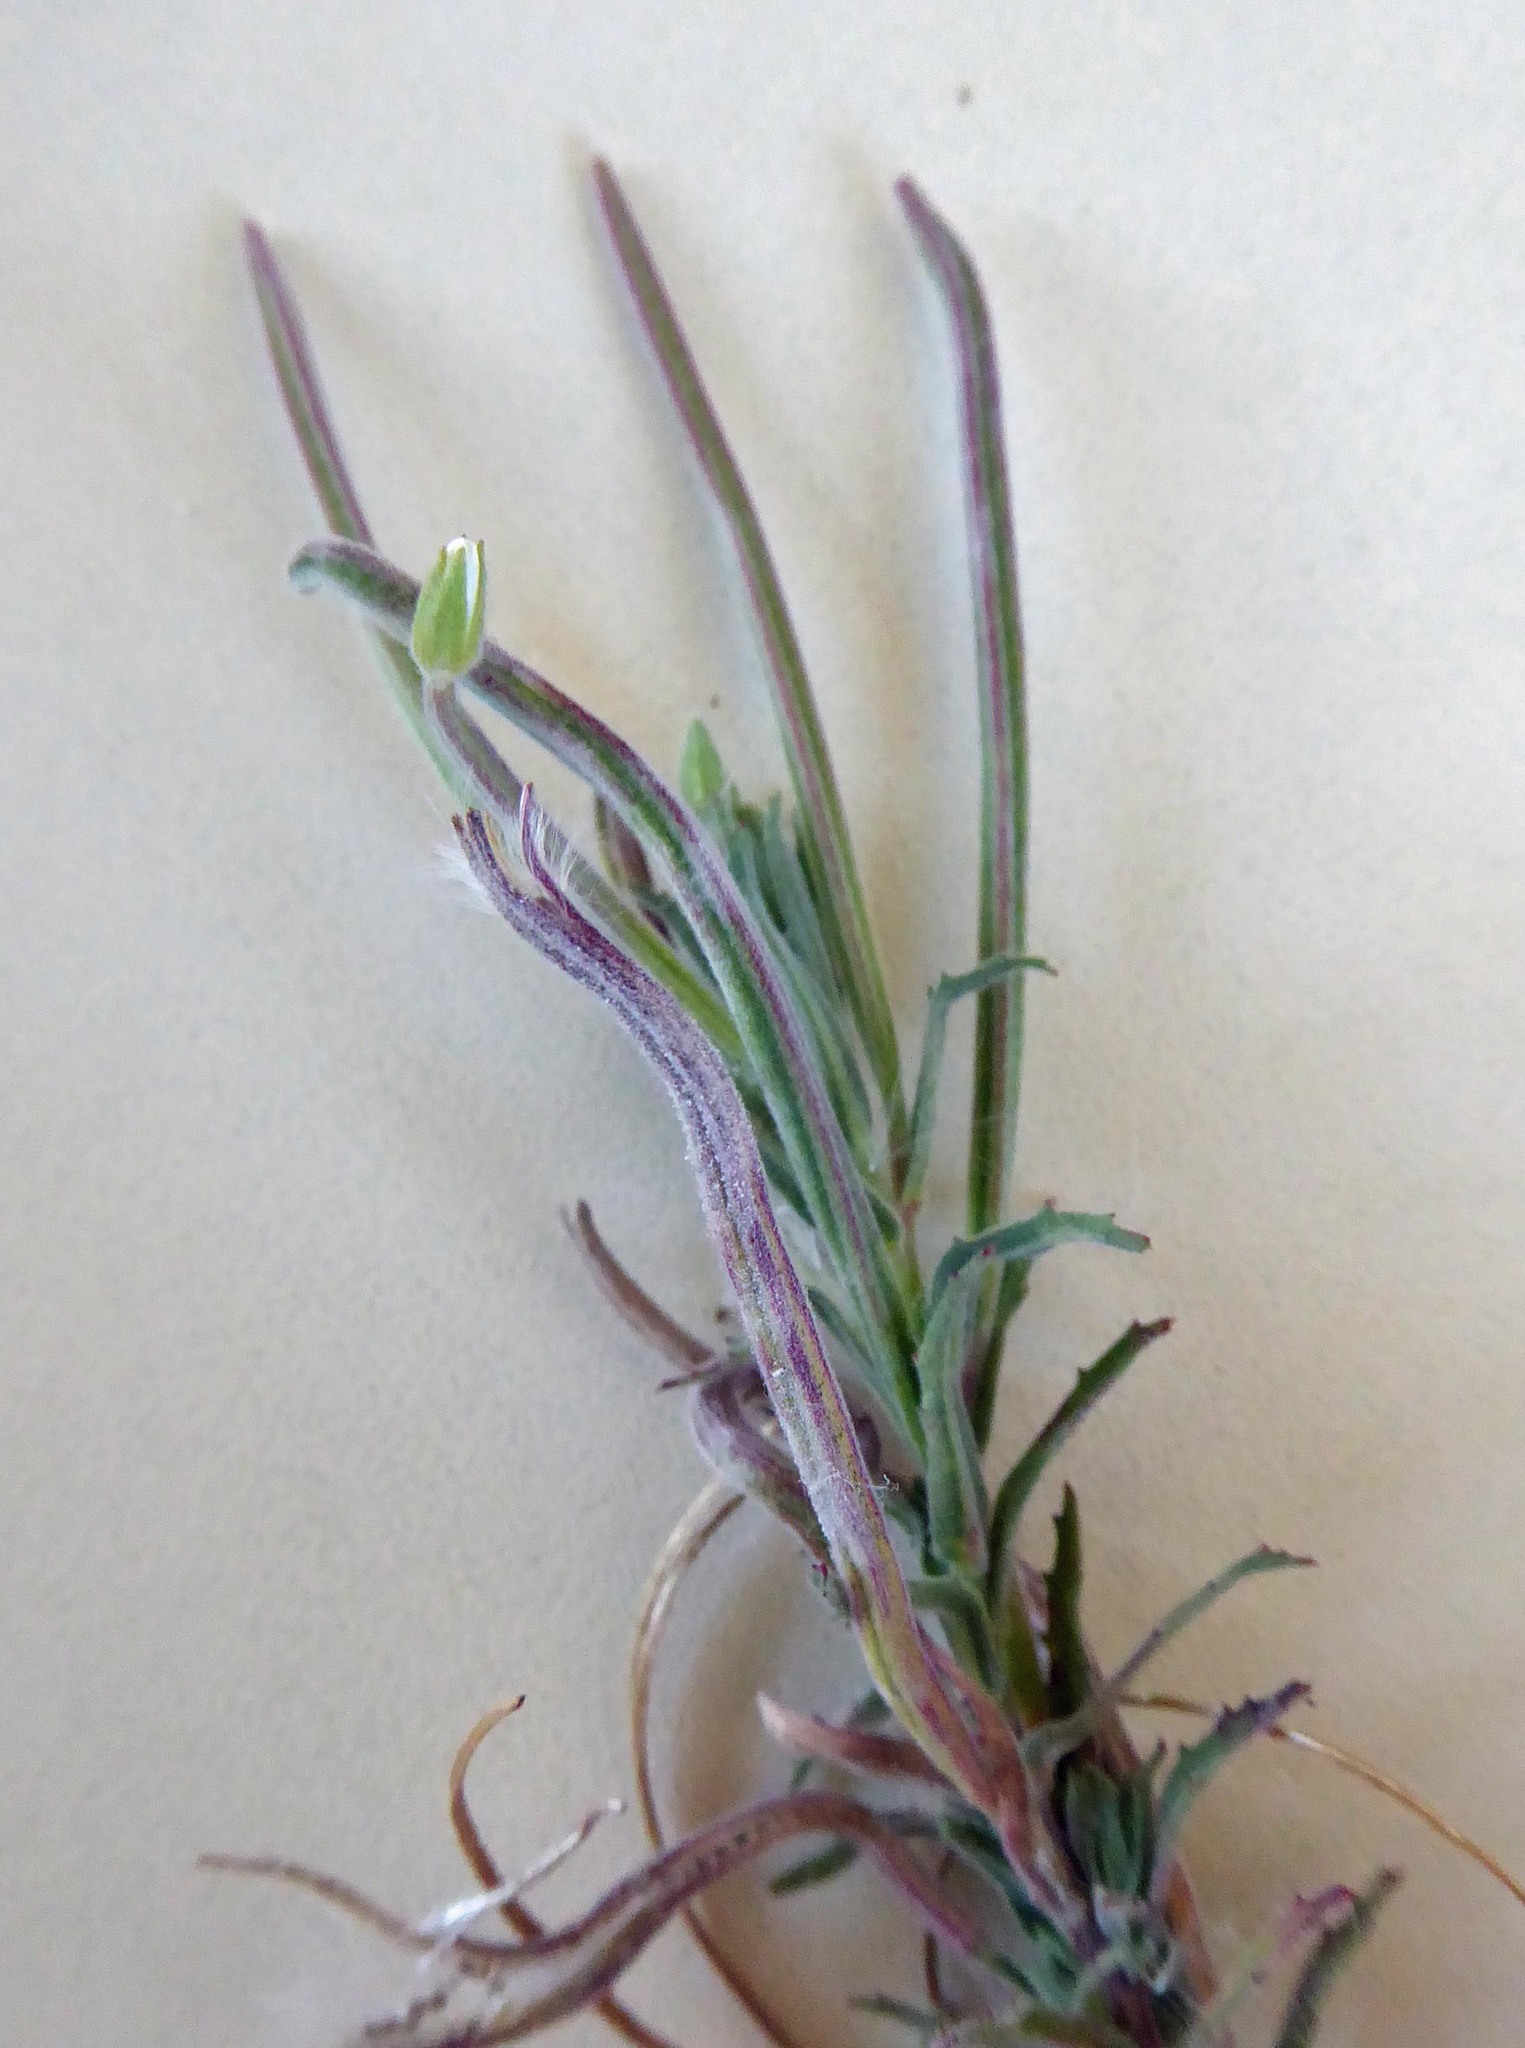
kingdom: Plantae
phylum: Tracheophyta
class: Magnoliopsida
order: Myrtales
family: Onagraceae
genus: Epilobium
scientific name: Epilobium hirtigerum
